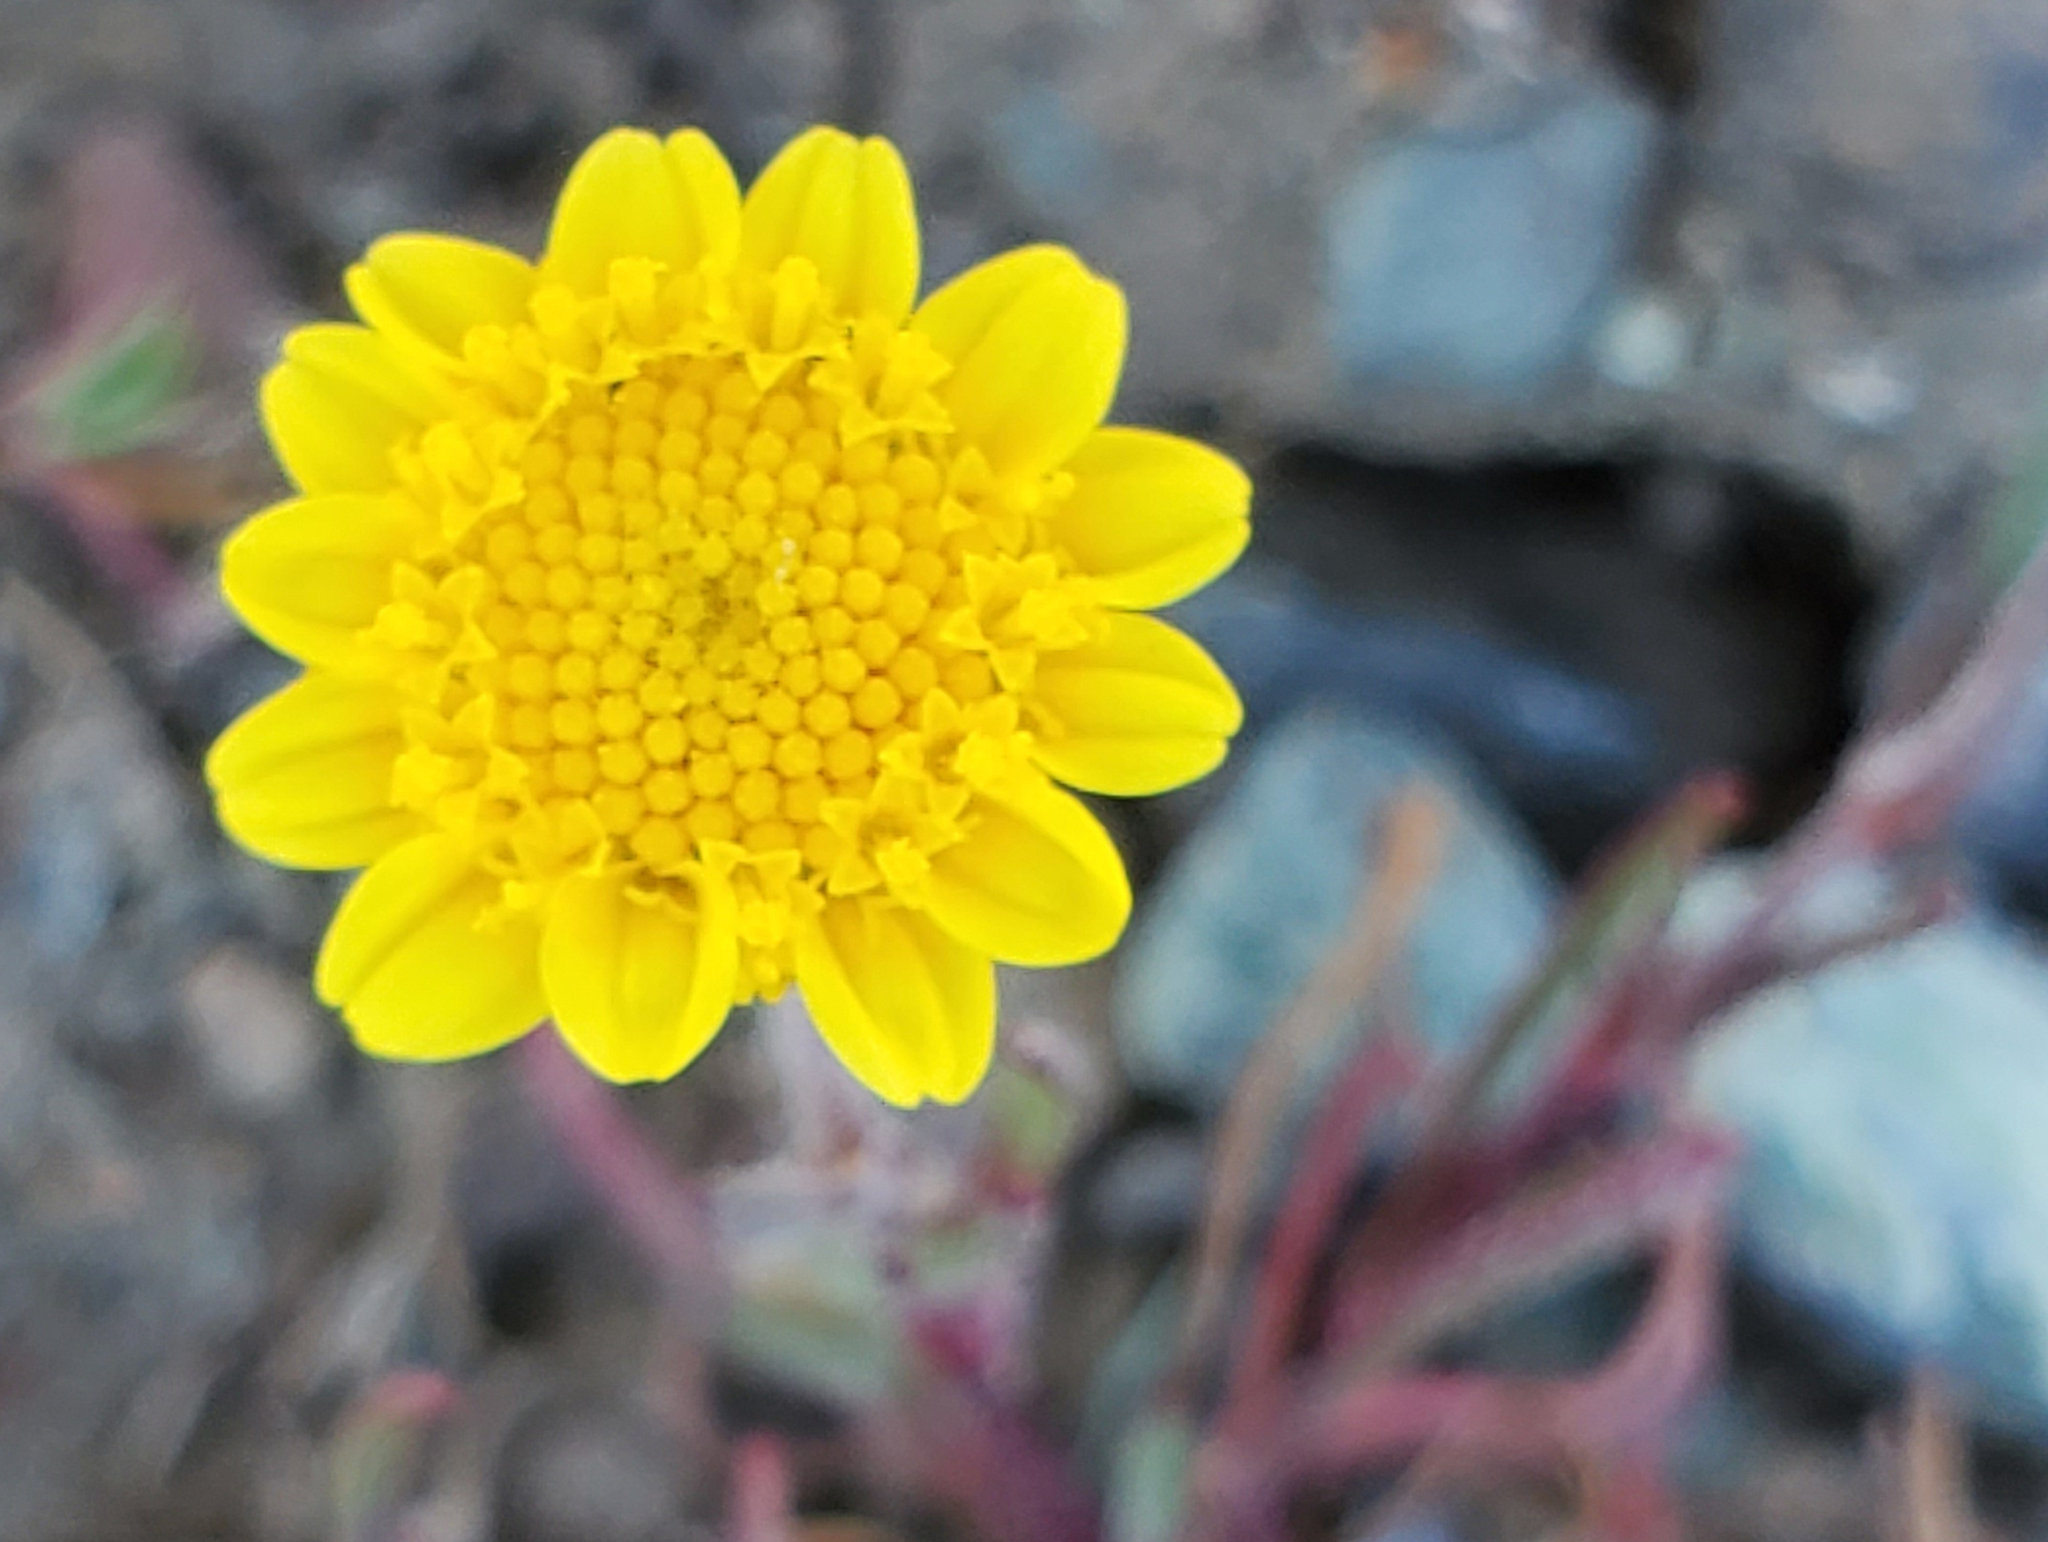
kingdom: Plantae
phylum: Tracheophyta
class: Magnoliopsida
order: Asterales
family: Asteraceae
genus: Lasthenia
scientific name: Lasthenia californica
